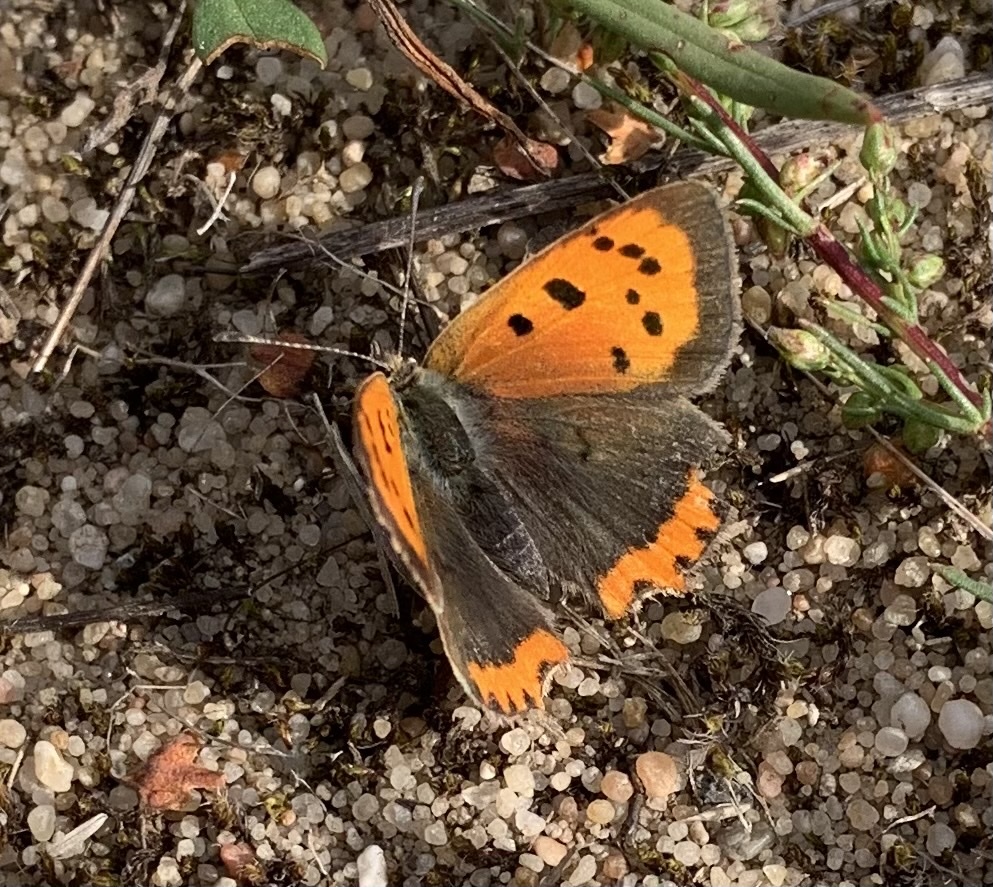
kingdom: Animalia
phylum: Arthropoda
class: Insecta
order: Lepidoptera
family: Lycaenidae
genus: Lycaena
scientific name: Lycaena phlaeas
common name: Small copper
